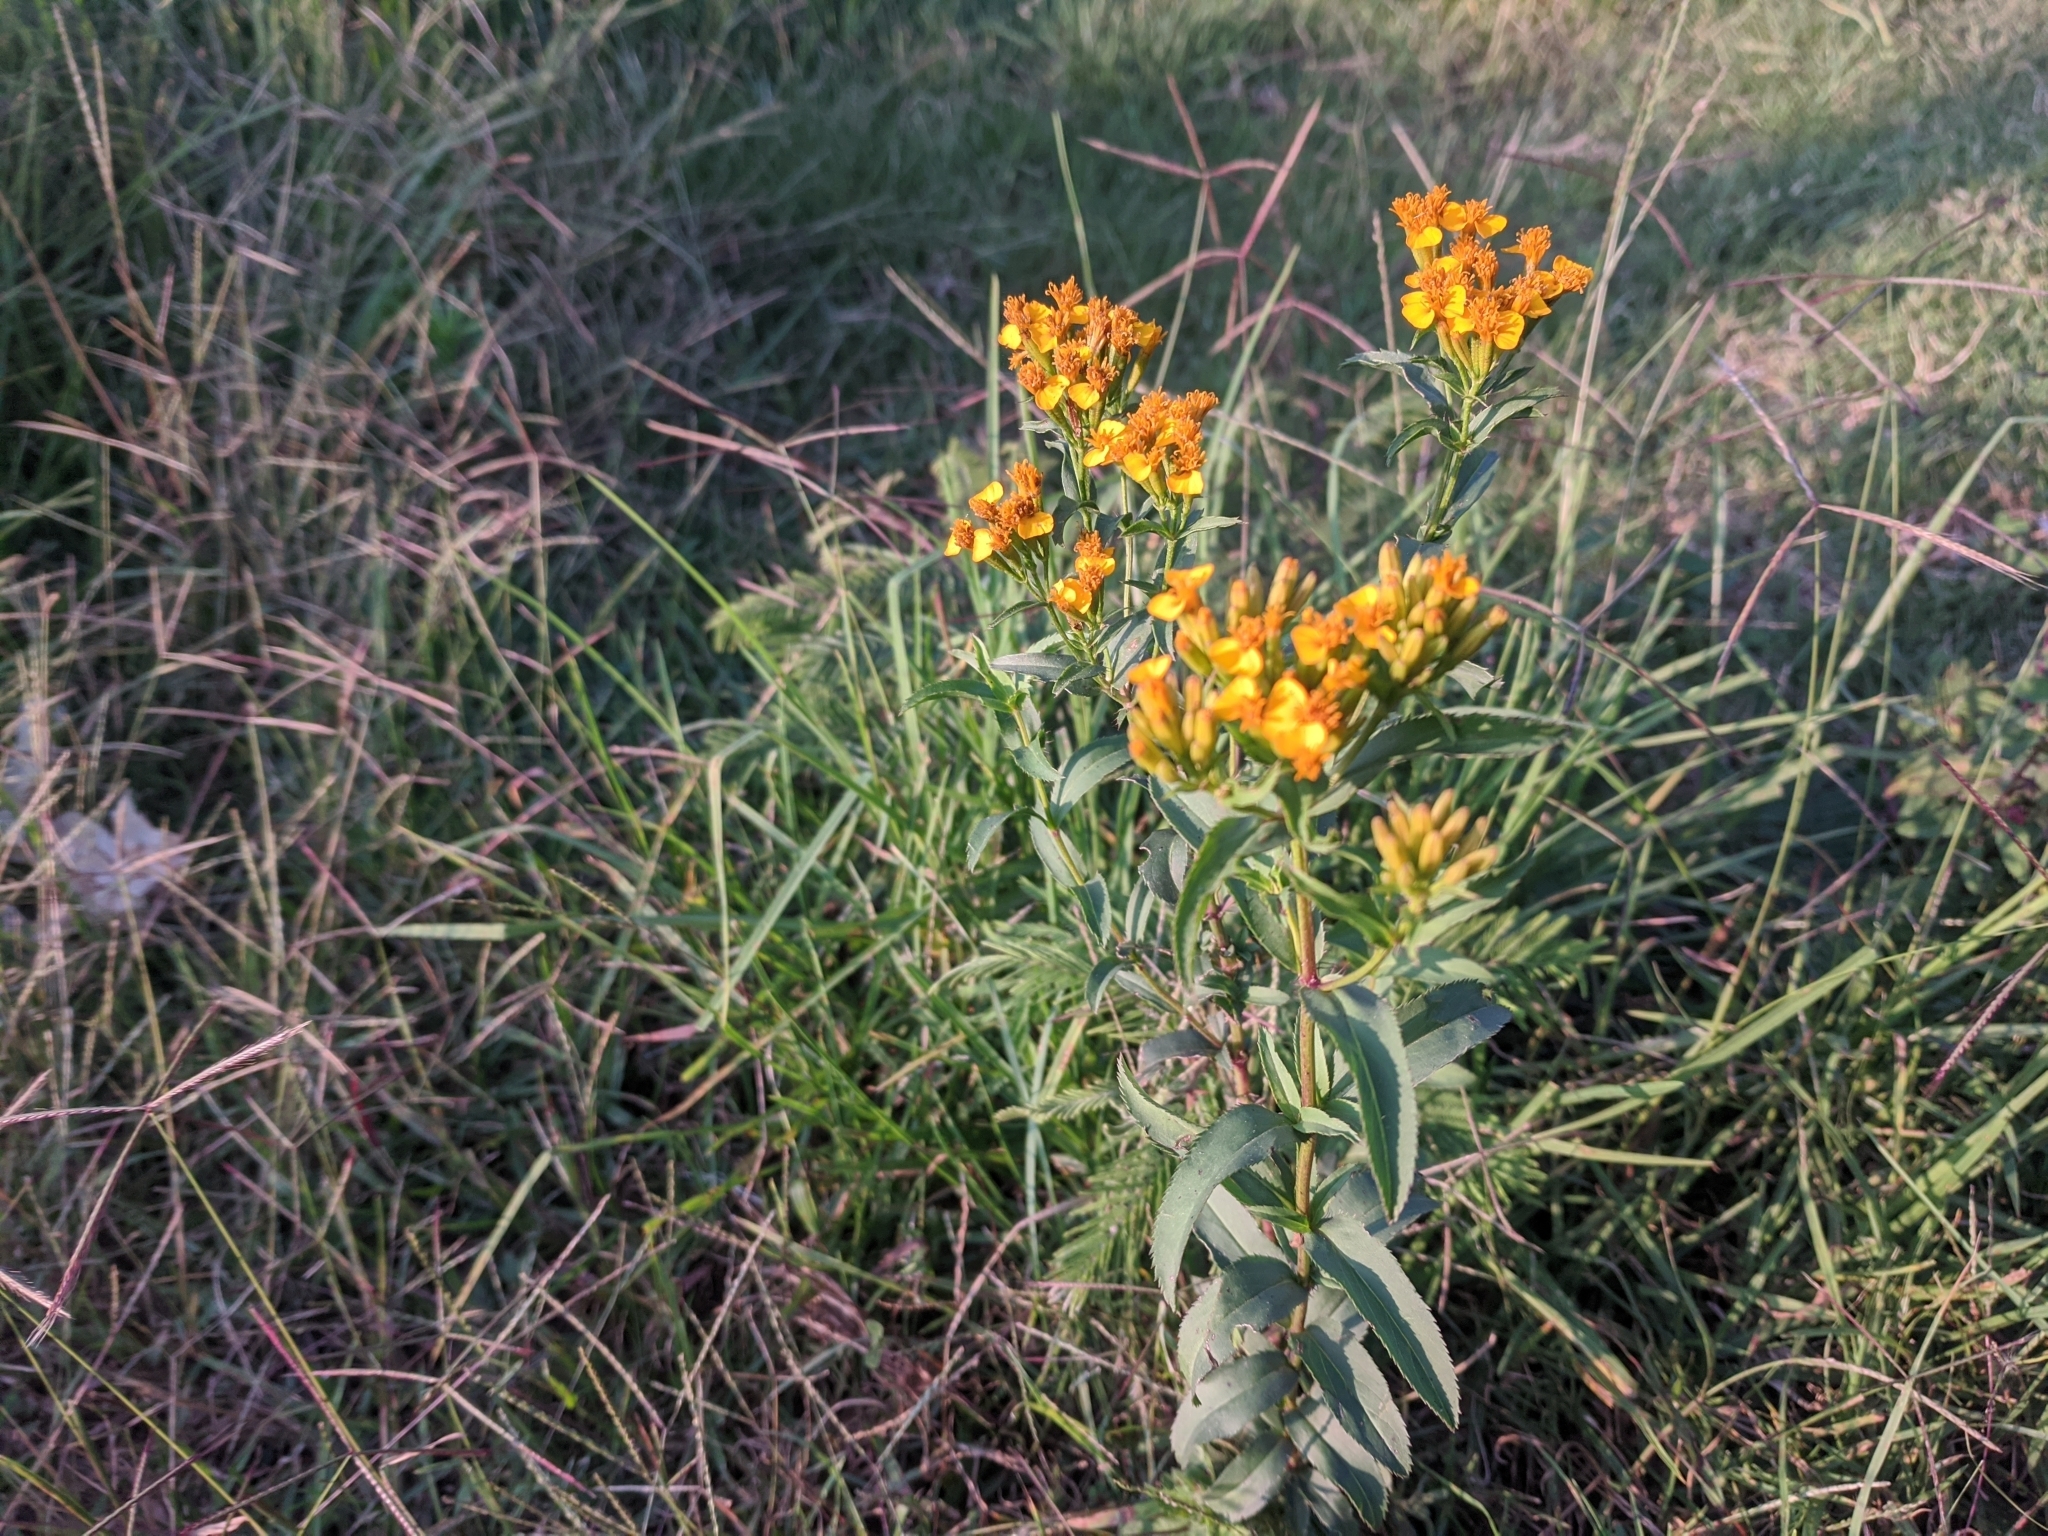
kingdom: Plantae
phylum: Tracheophyta
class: Magnoliopsida
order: Asterales
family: Asteraceae
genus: Tagetes
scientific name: Tagetes lucida
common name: Sweetscented marigold
